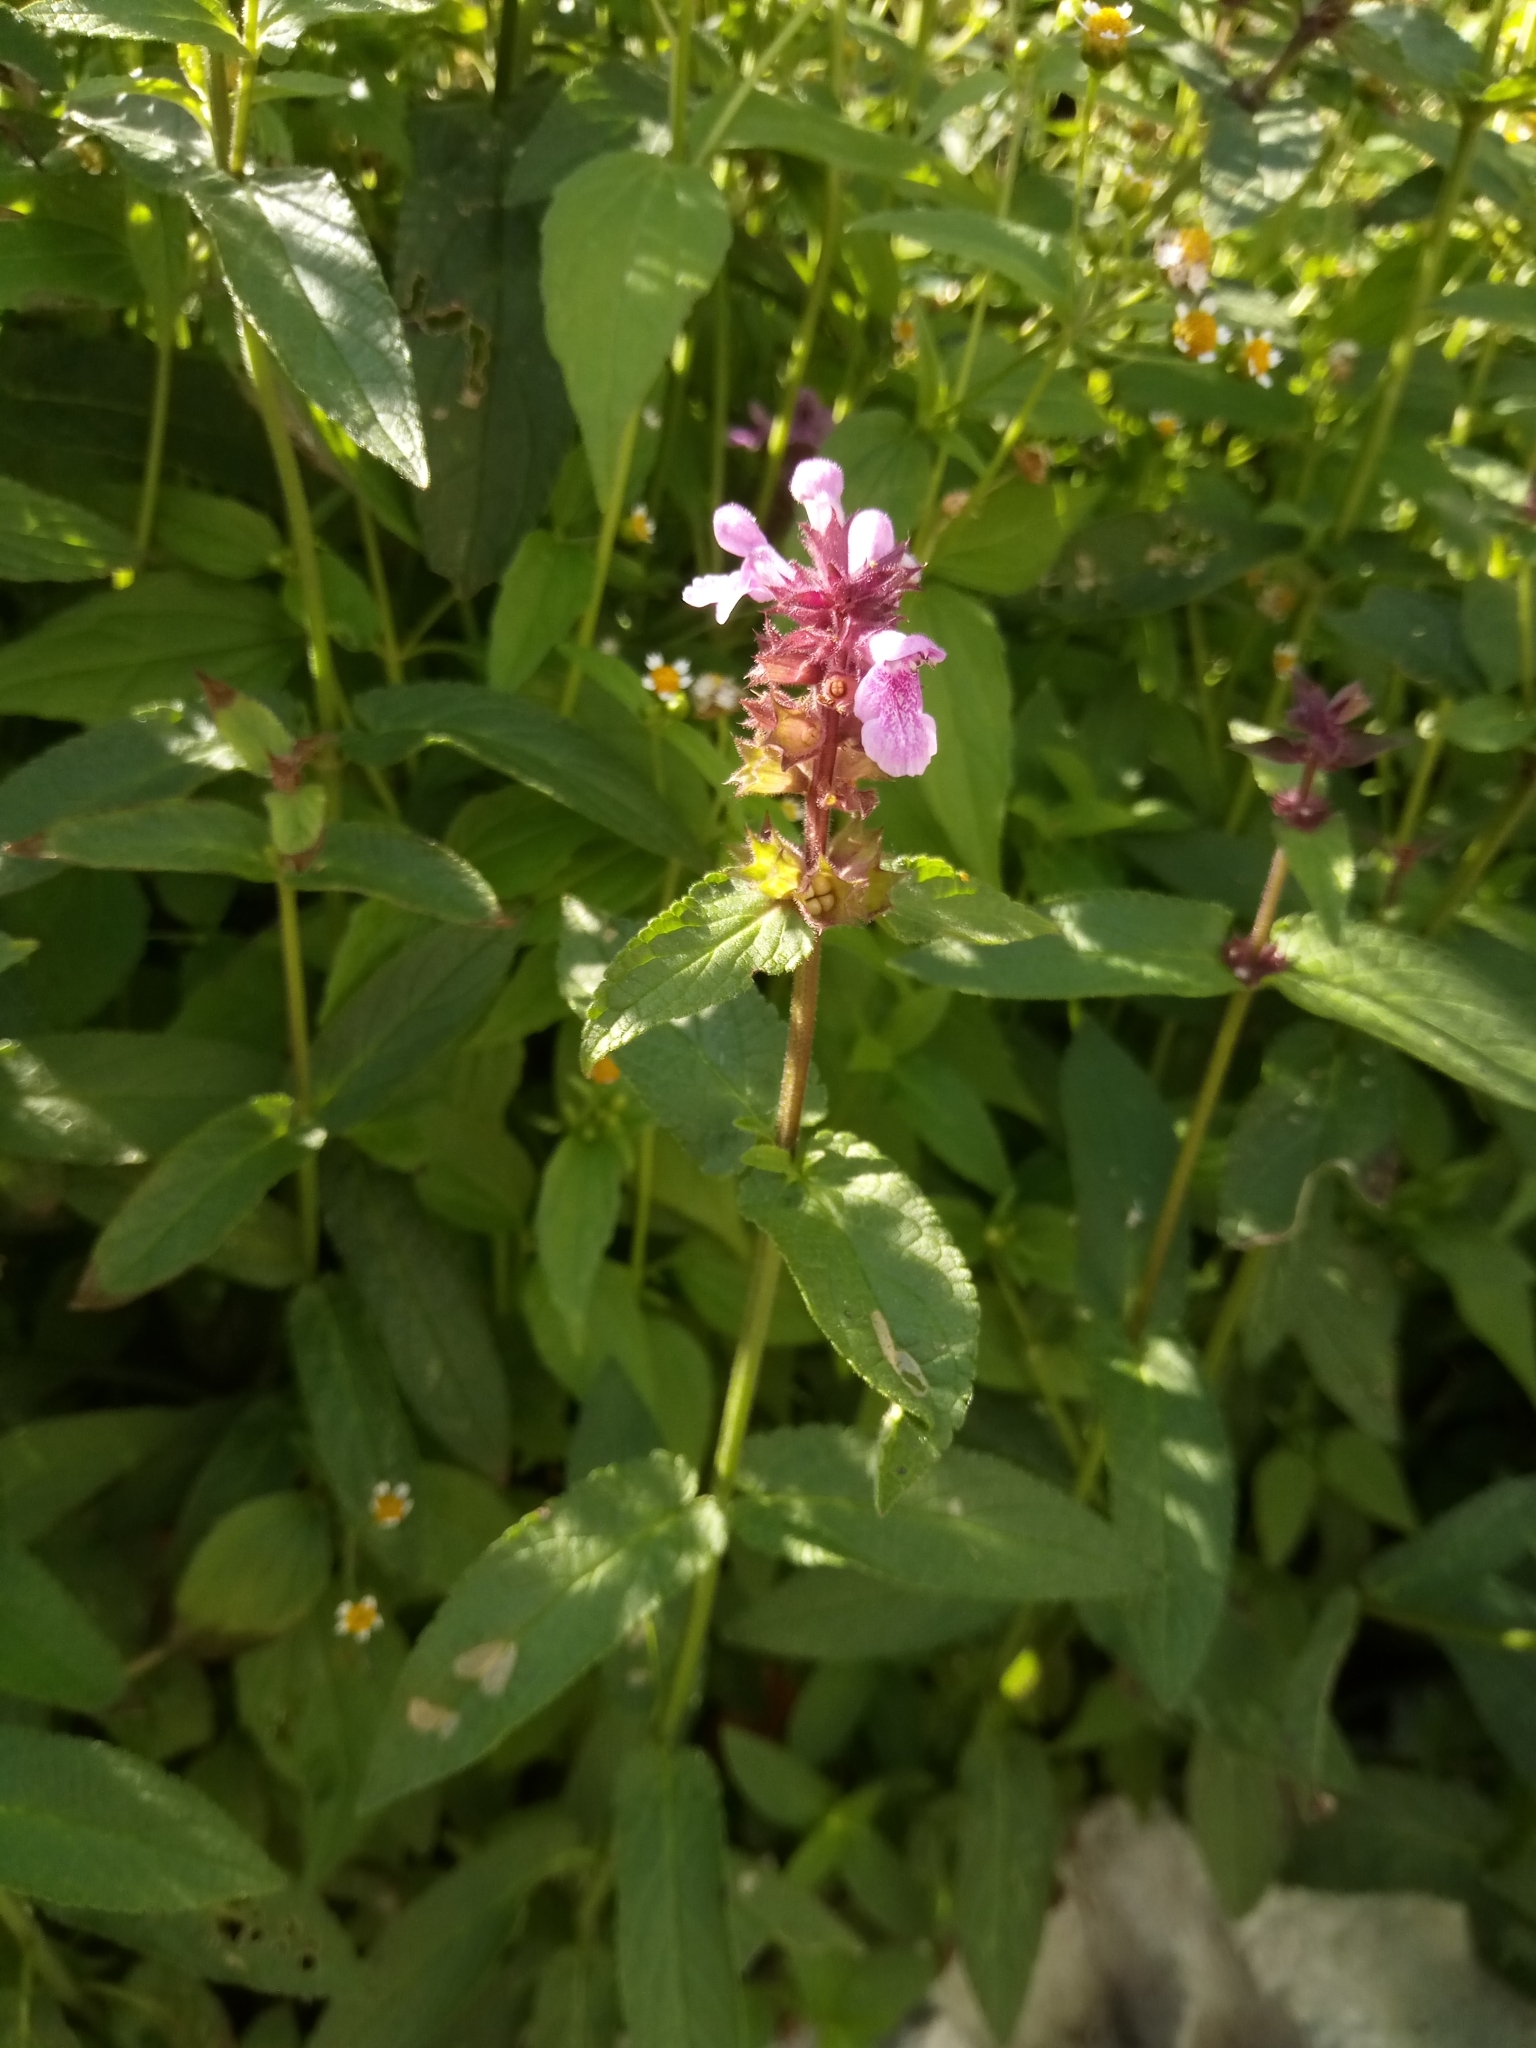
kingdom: Plantae
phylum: Tracheophyta
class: Magnoliopsida
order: Lamiales
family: Lamiaceae
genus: Stachys
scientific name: Stachys palustris
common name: Marsh woundwort
